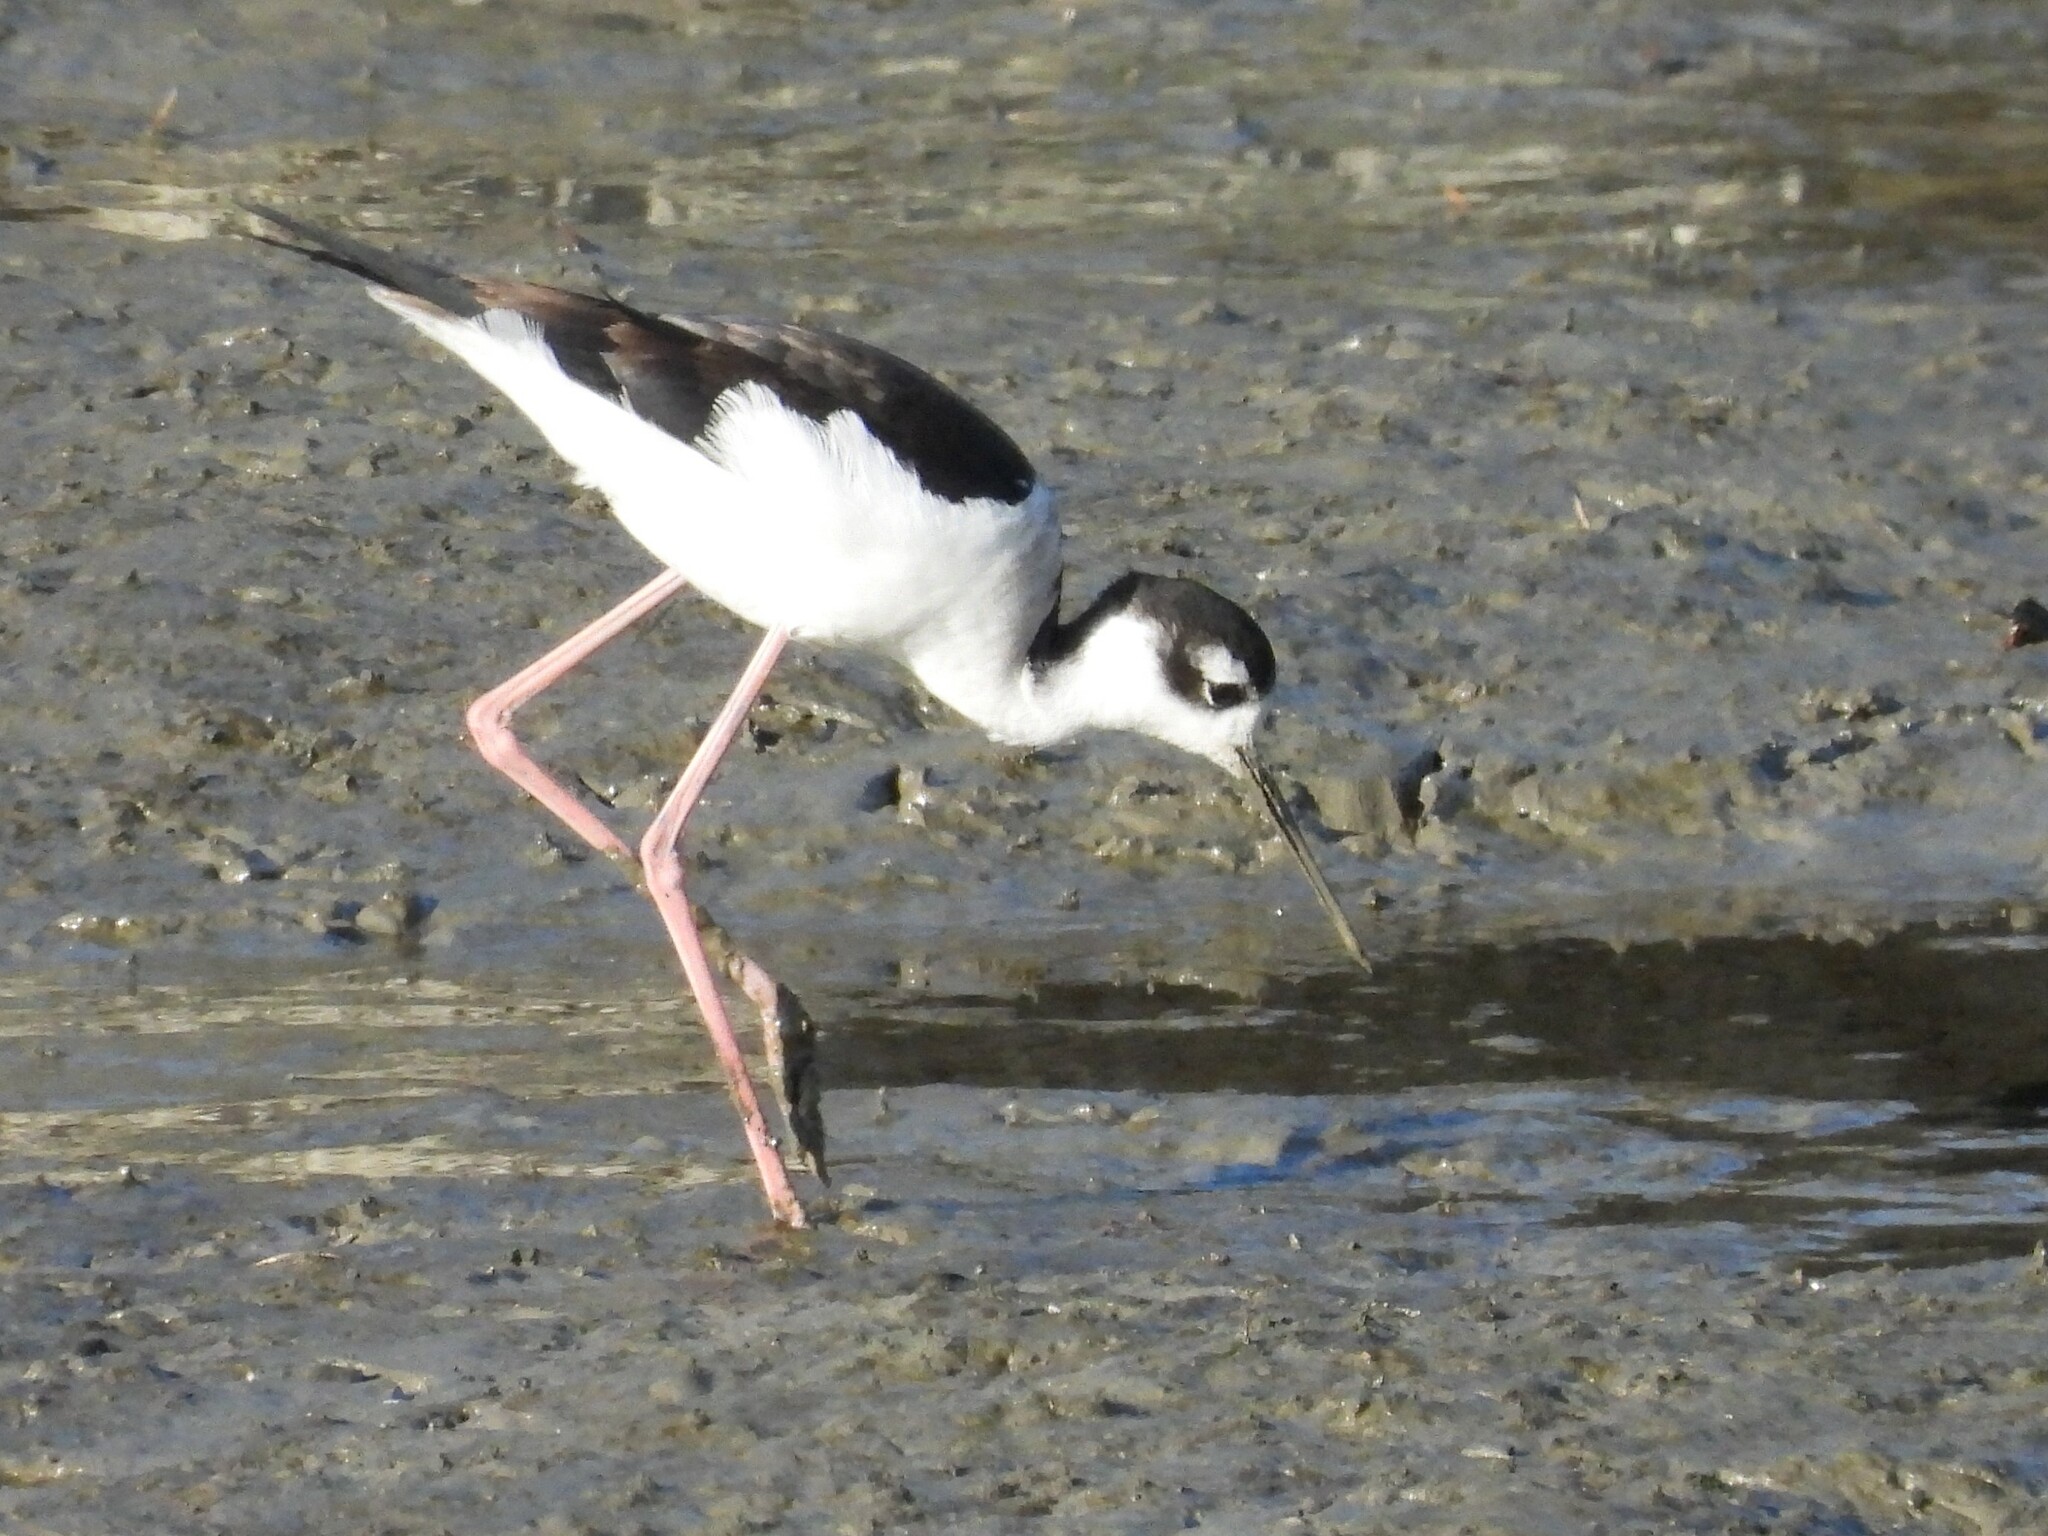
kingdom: Animalia
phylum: Chordata
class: Aves
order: Charadriiformes
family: Recurvirostridae
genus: Himantopus
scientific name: Himantopus mexicanus
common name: Black-necked stilt
